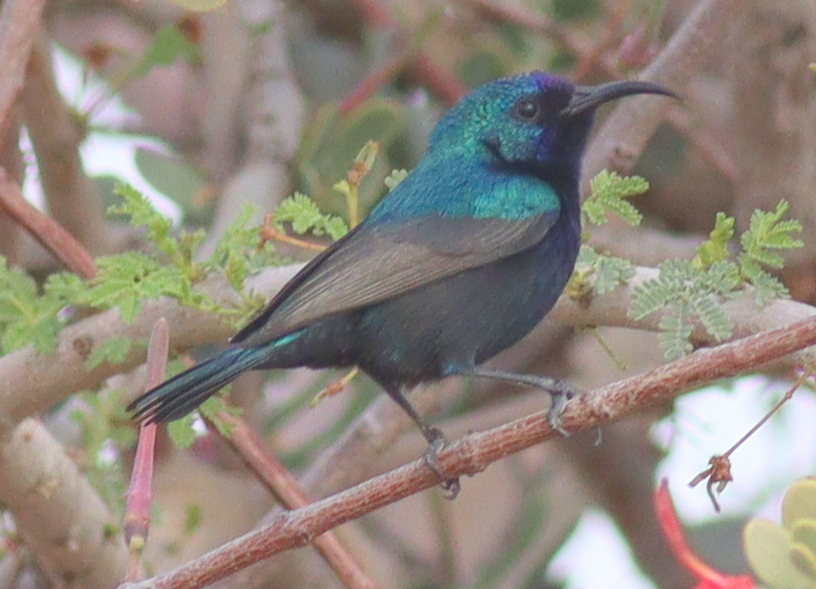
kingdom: Animalia
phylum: Chordata
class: Aves
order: Passeriformes
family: Nectariniidae
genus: Cinnyris
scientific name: Cinnyris osea
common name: Palestine sunbird
